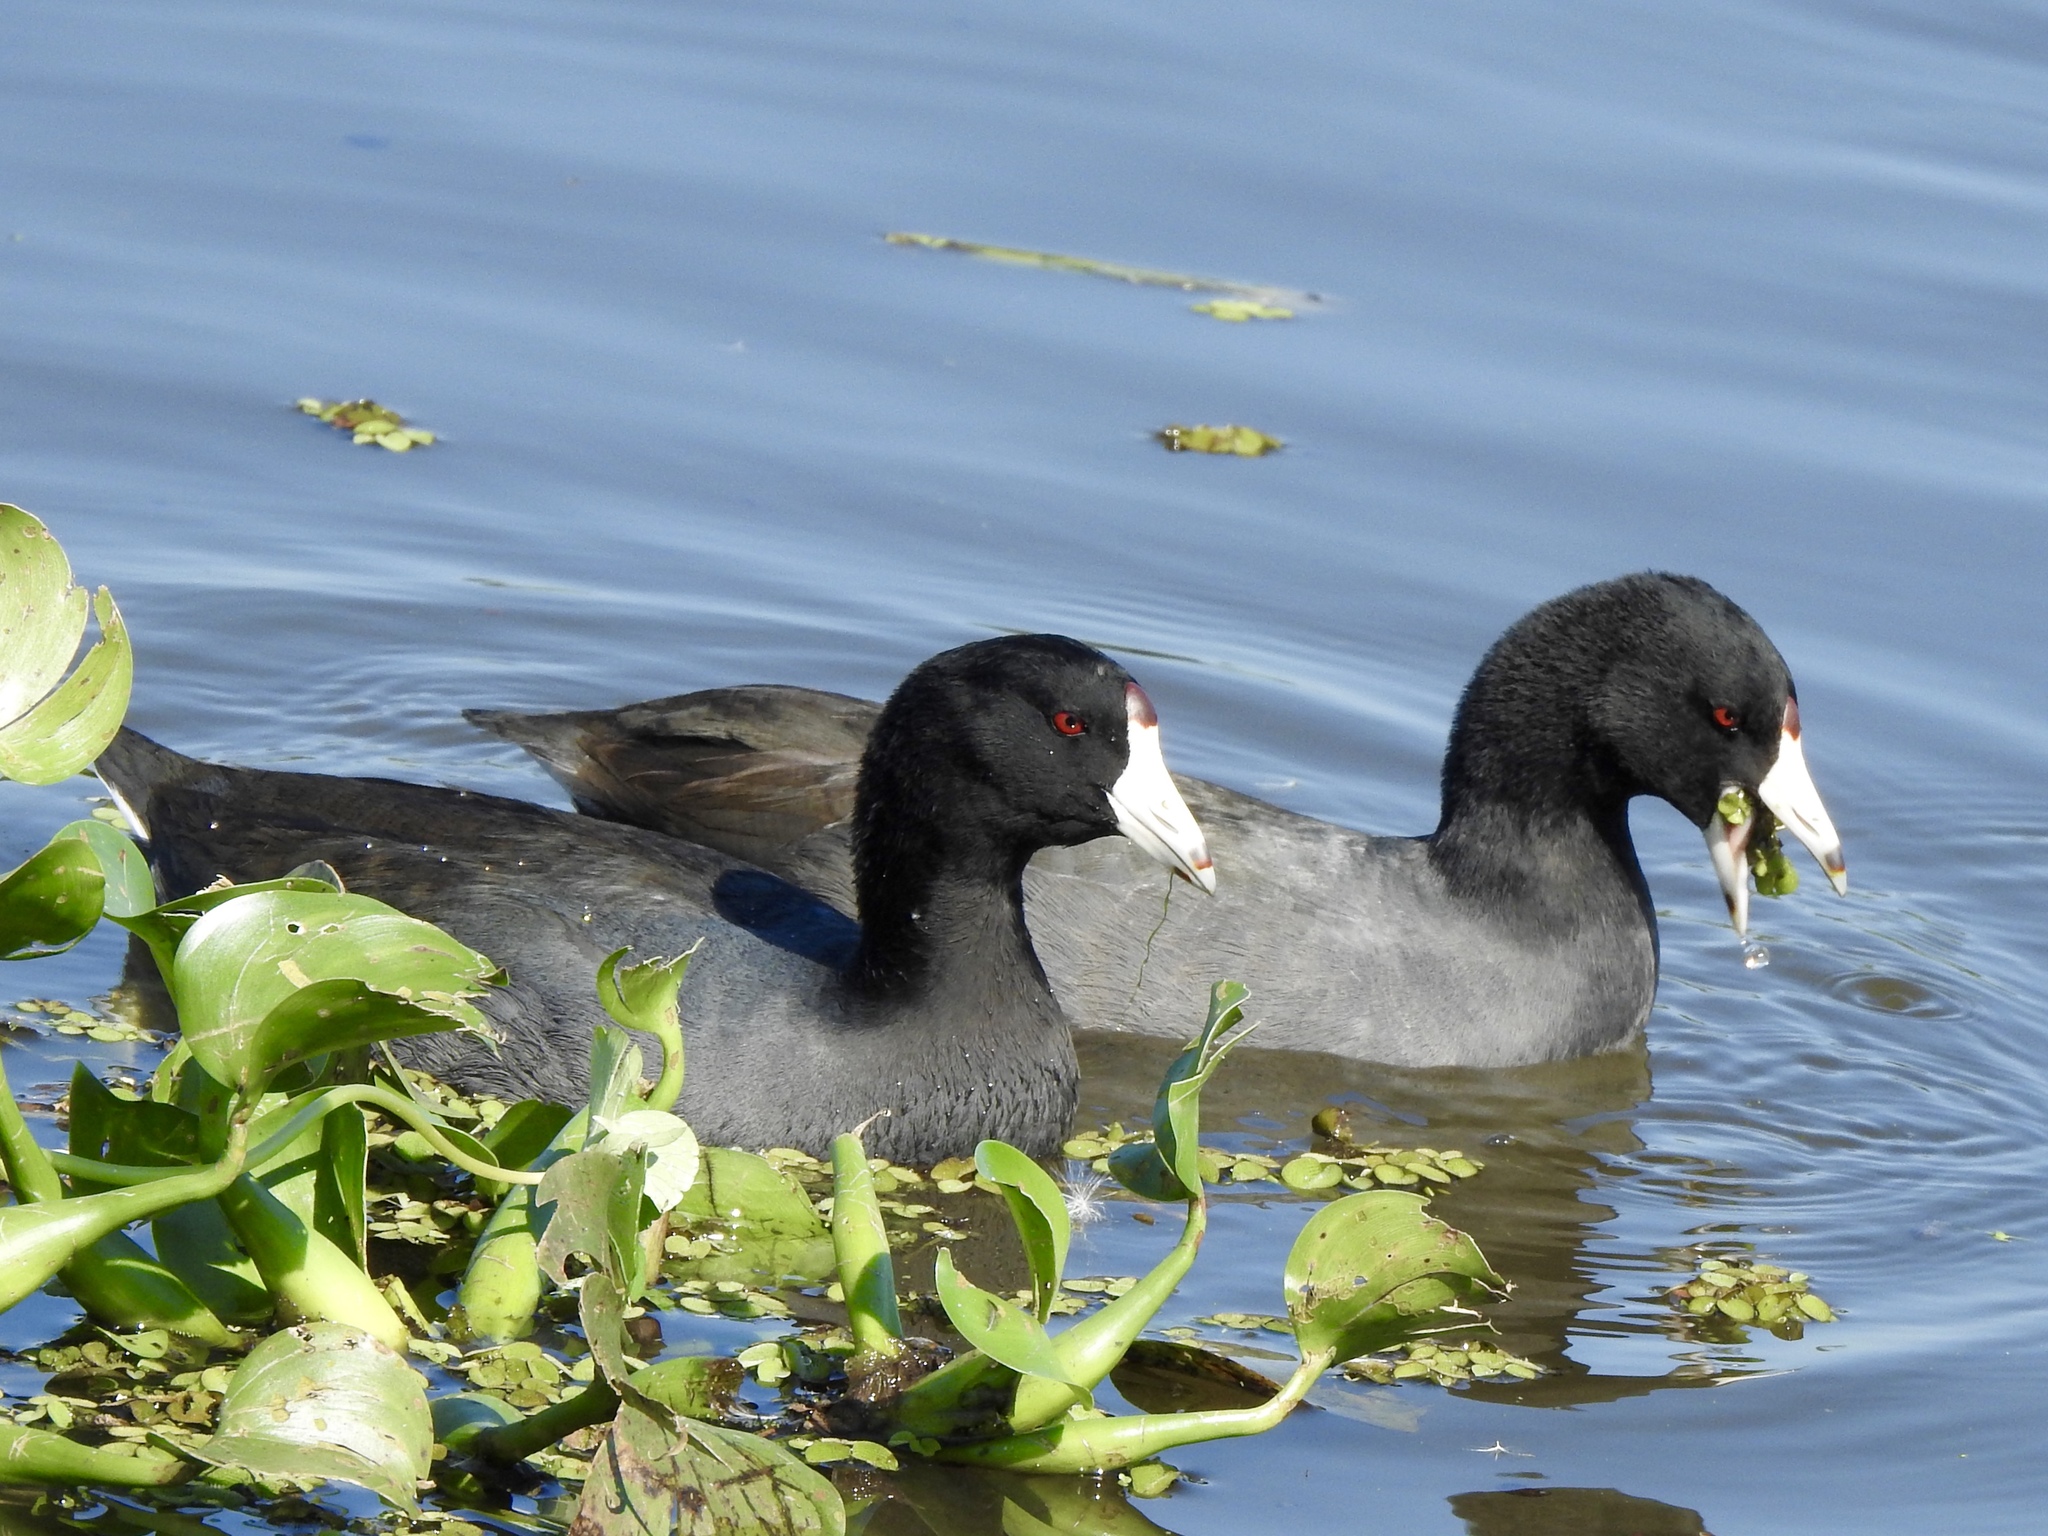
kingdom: Animalia
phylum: Chordata
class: Aves
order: Gruiformes
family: Rallidae
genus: Fulica
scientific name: Fulica americana
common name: American coot
